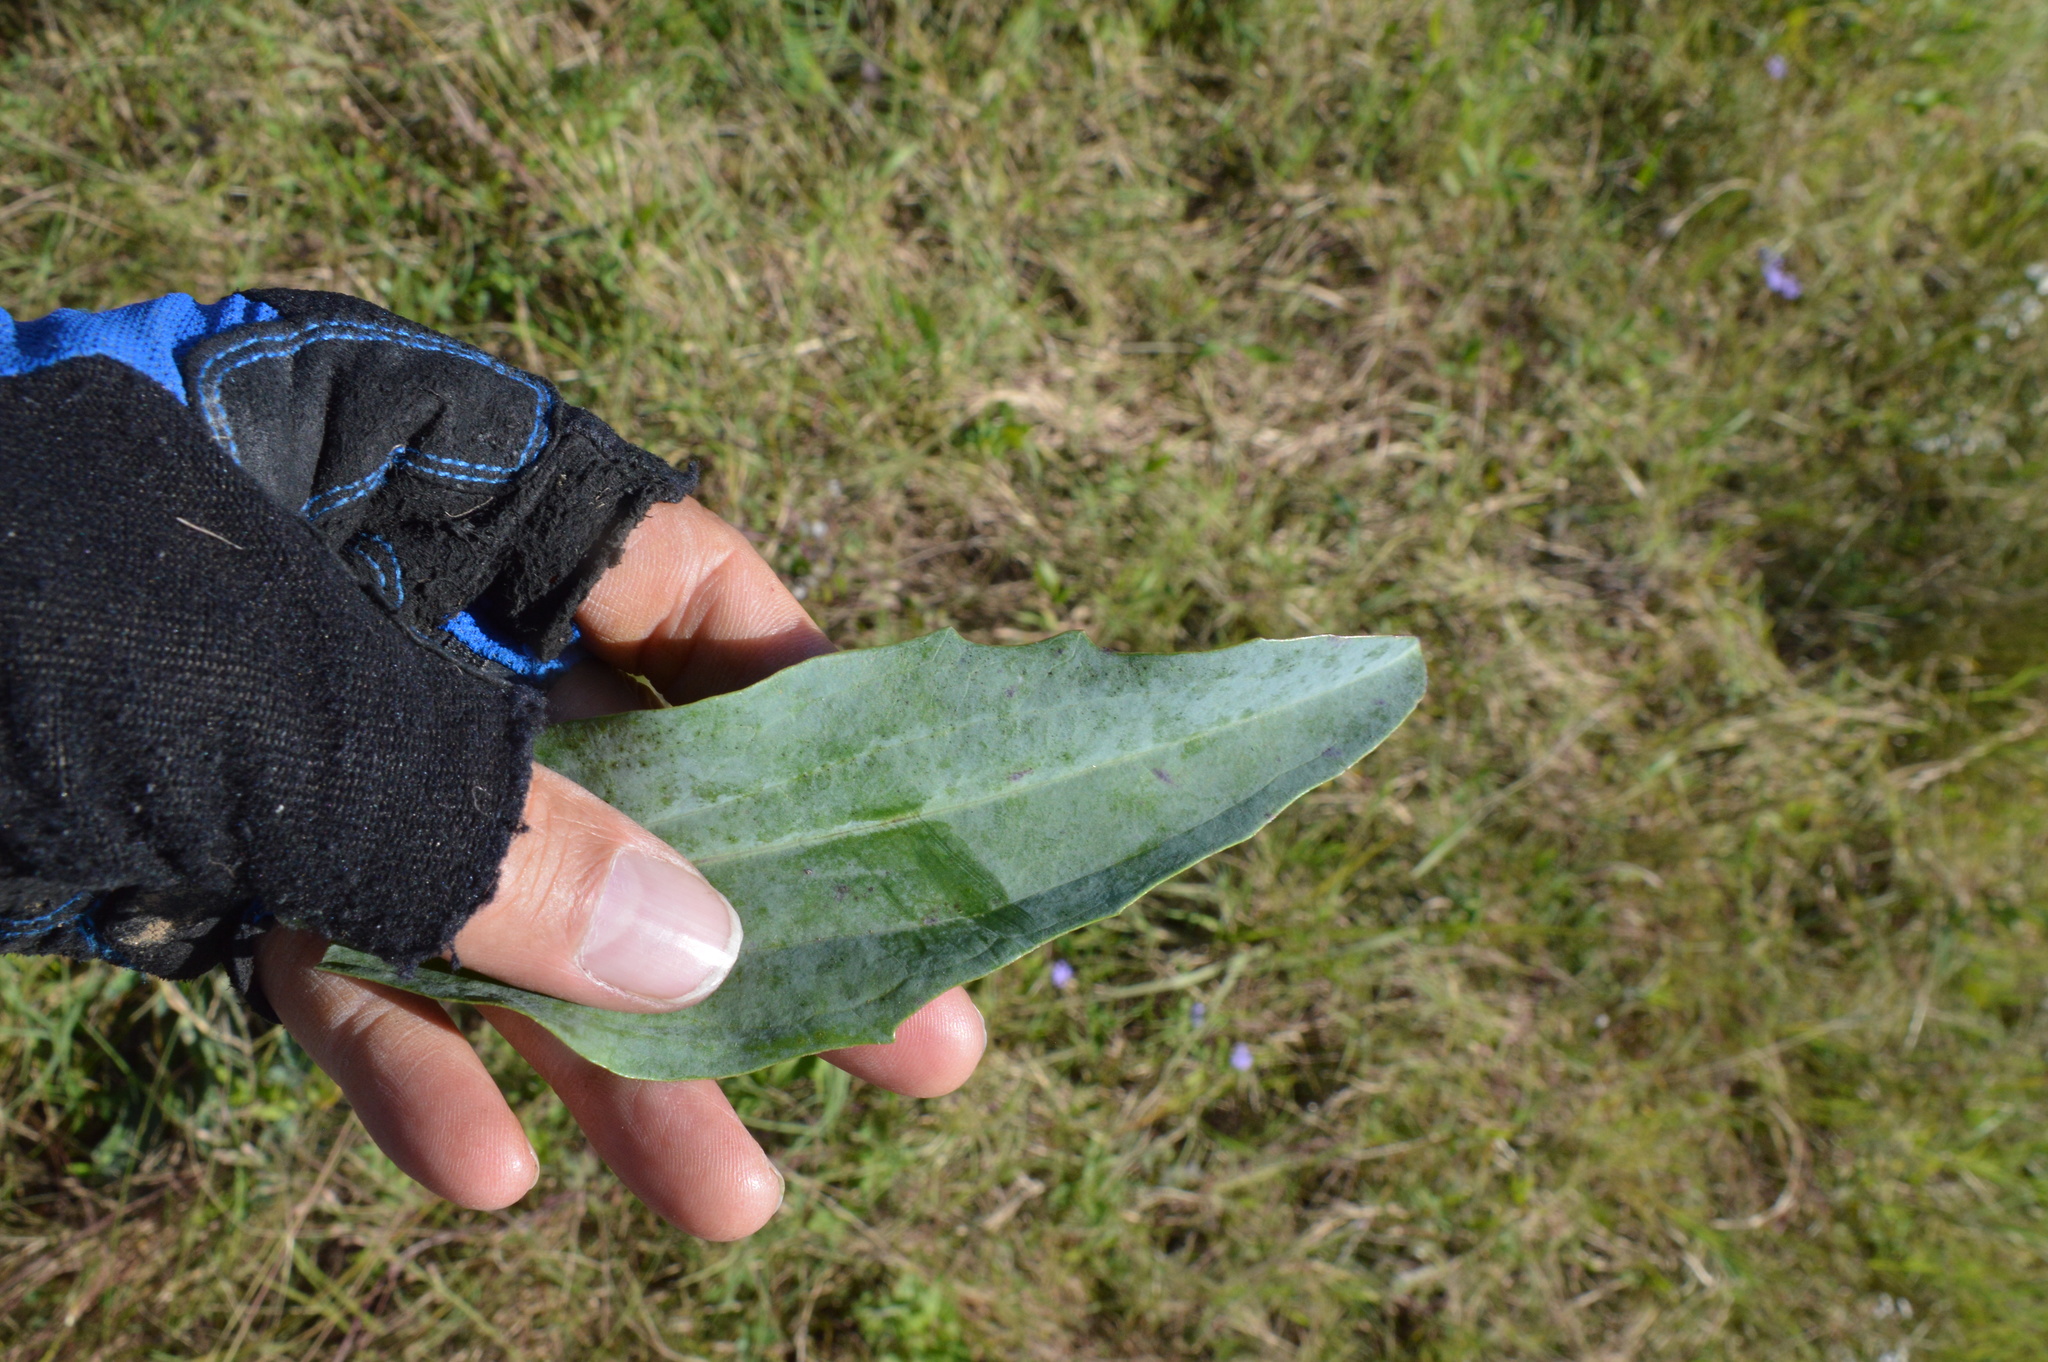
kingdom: Plantae
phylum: Tracheophyta
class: Magnoliopsida
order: Asterales
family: Asteraceae
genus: Arnoglossum
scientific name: Arnoglossum ovatum
